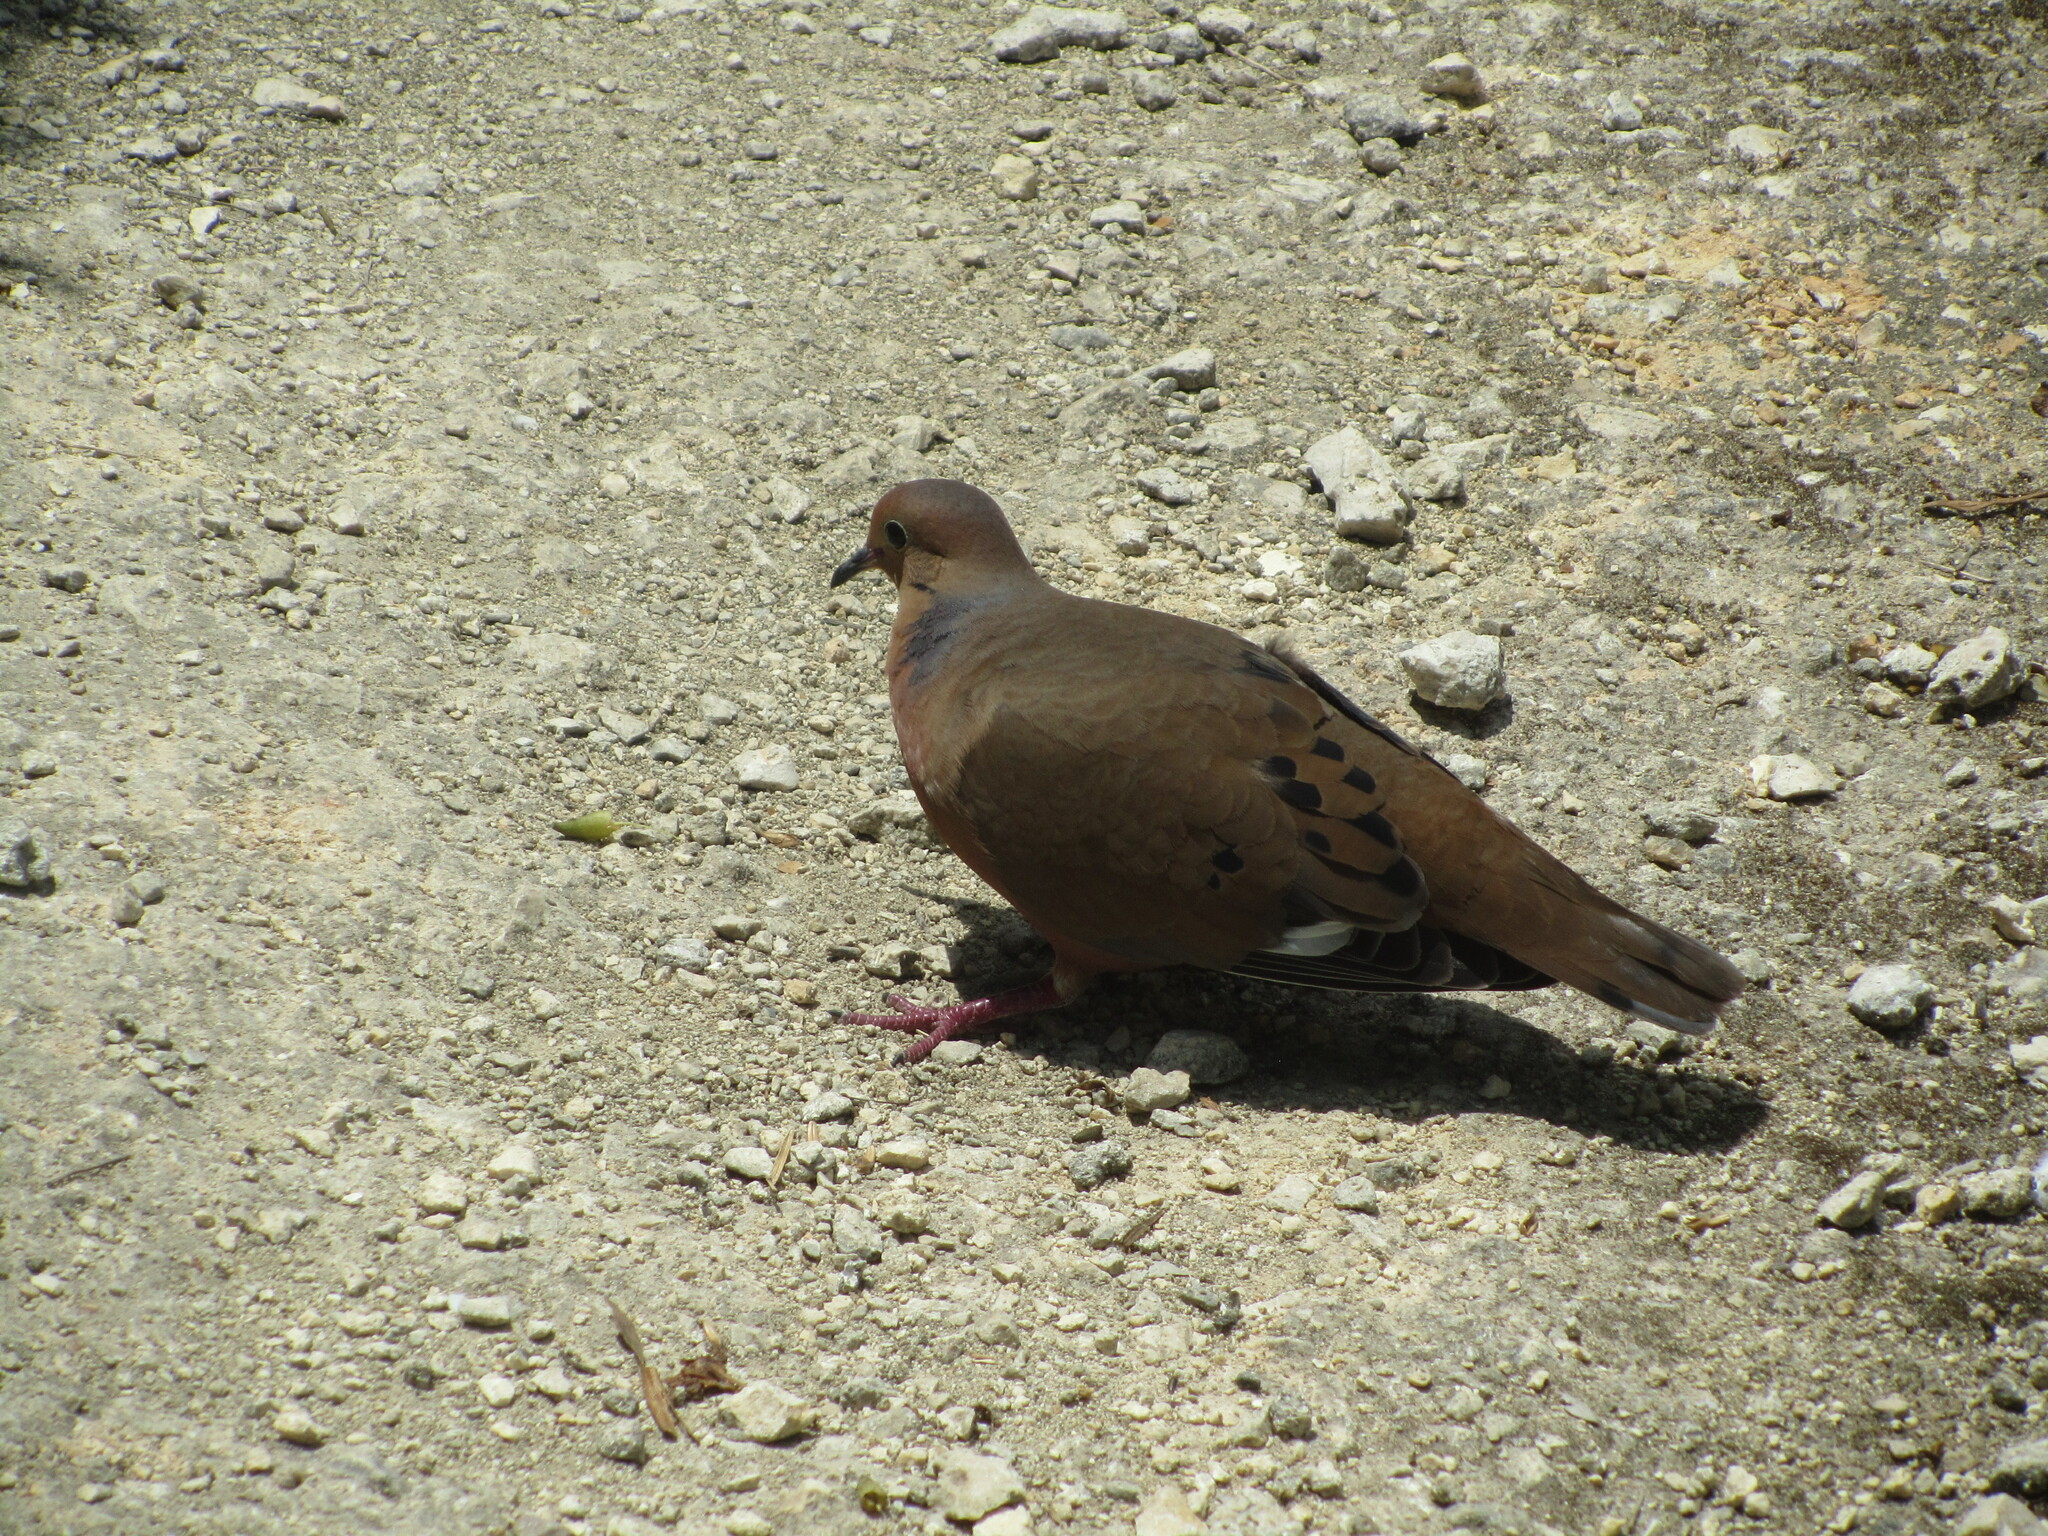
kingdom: Animalia
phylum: Chordata
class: Aves
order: Columbiformes
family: Columbidae
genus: Zenaida
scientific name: Zenaida aurita
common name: Zenaida dove
